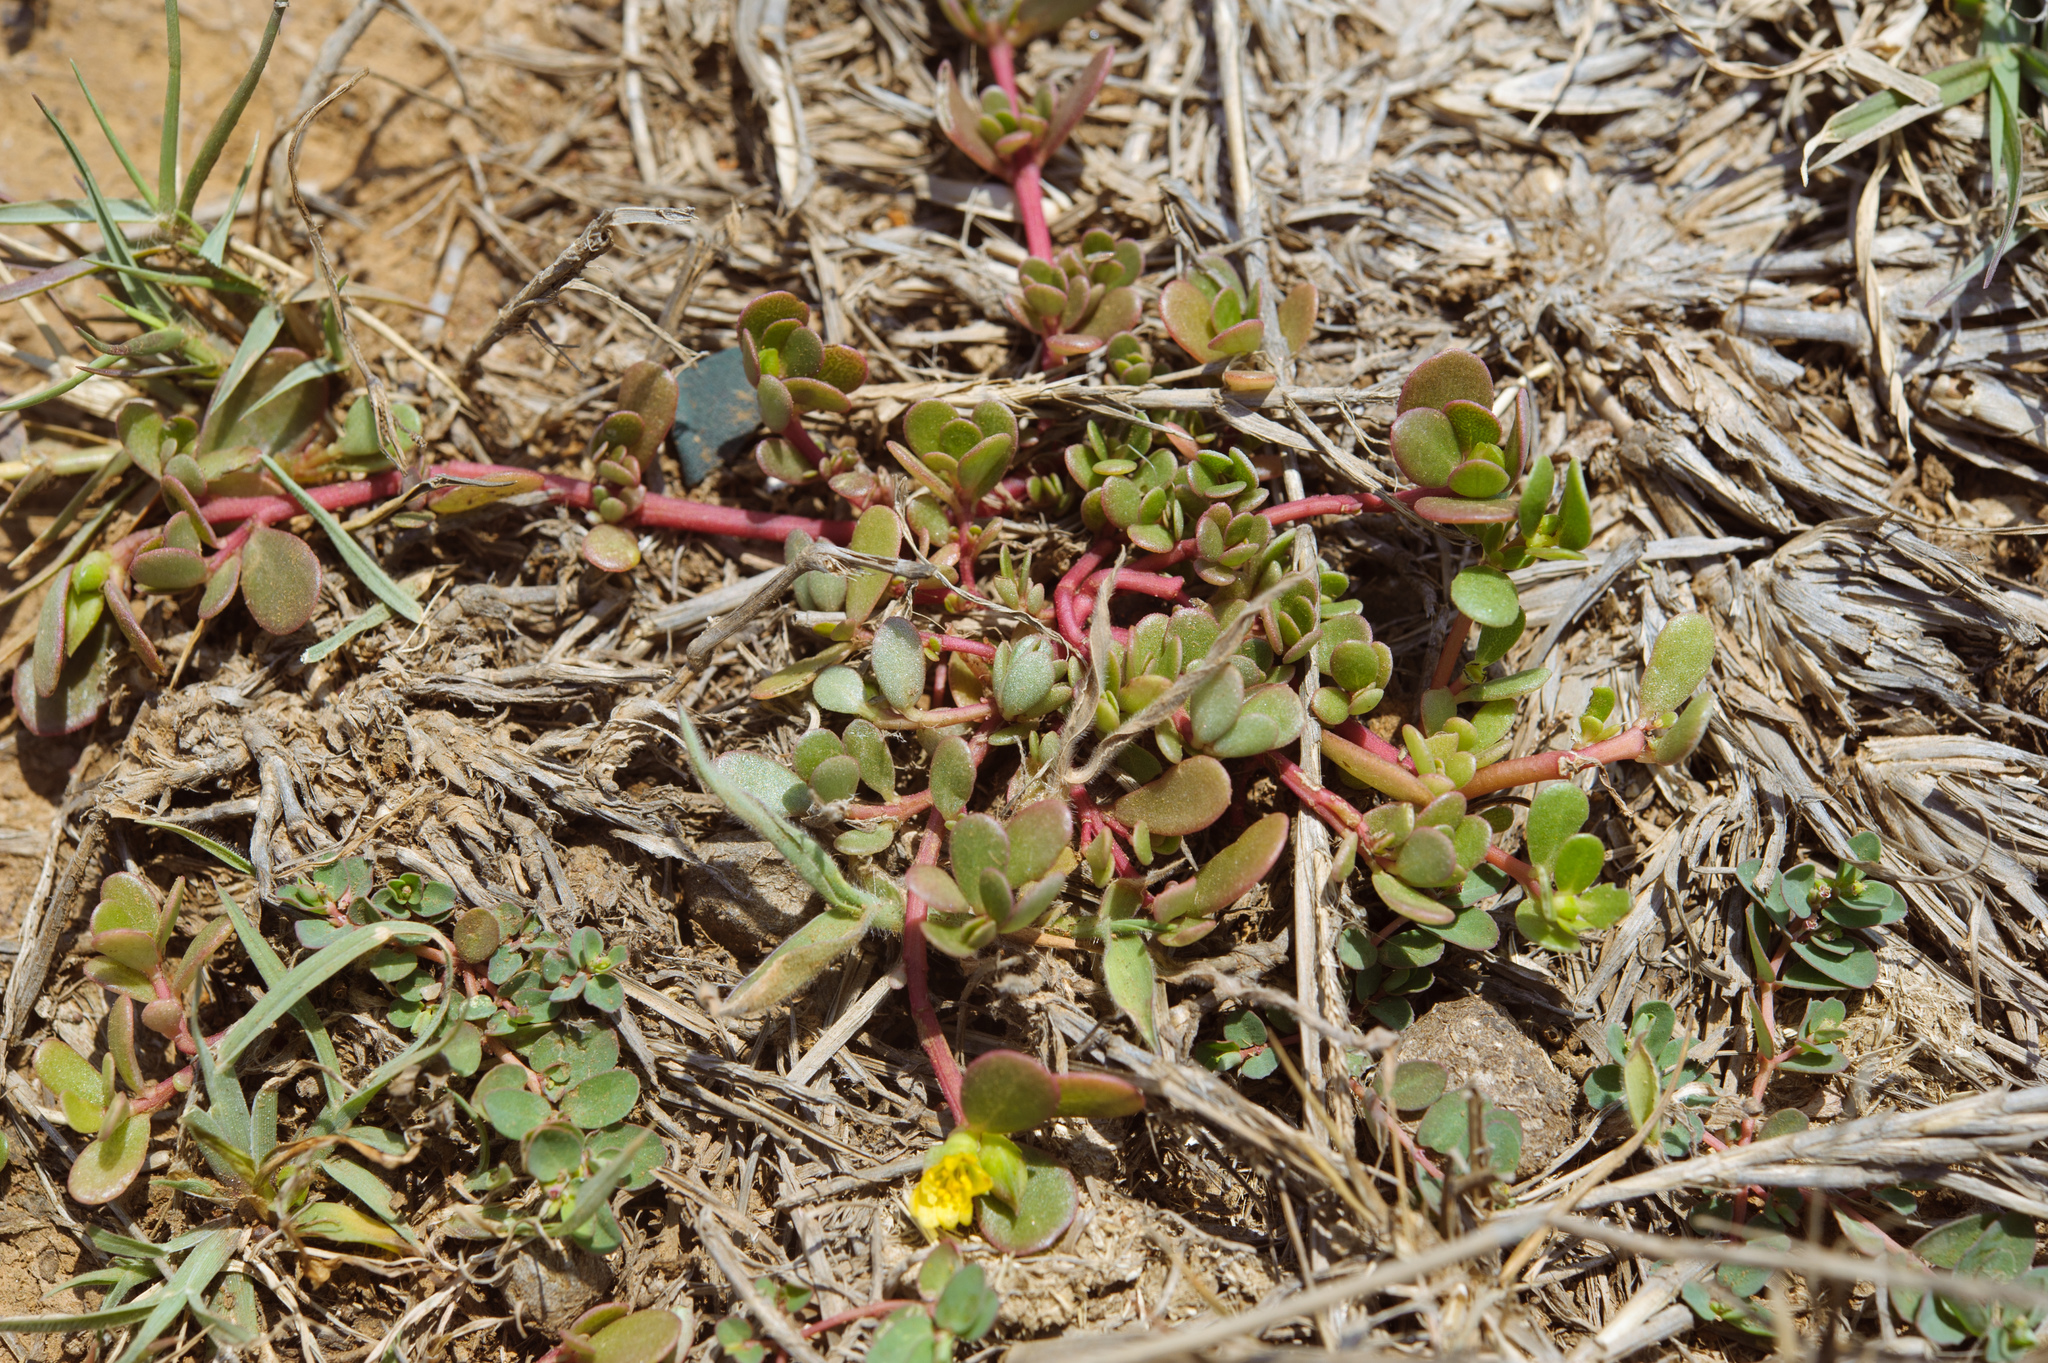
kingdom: Plantae
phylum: Tracheophyta
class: Magnoliopsida
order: Caryophyllales
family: Portulacaceae
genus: Portulaca
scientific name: Portulaca oleracea
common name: Common purslane
